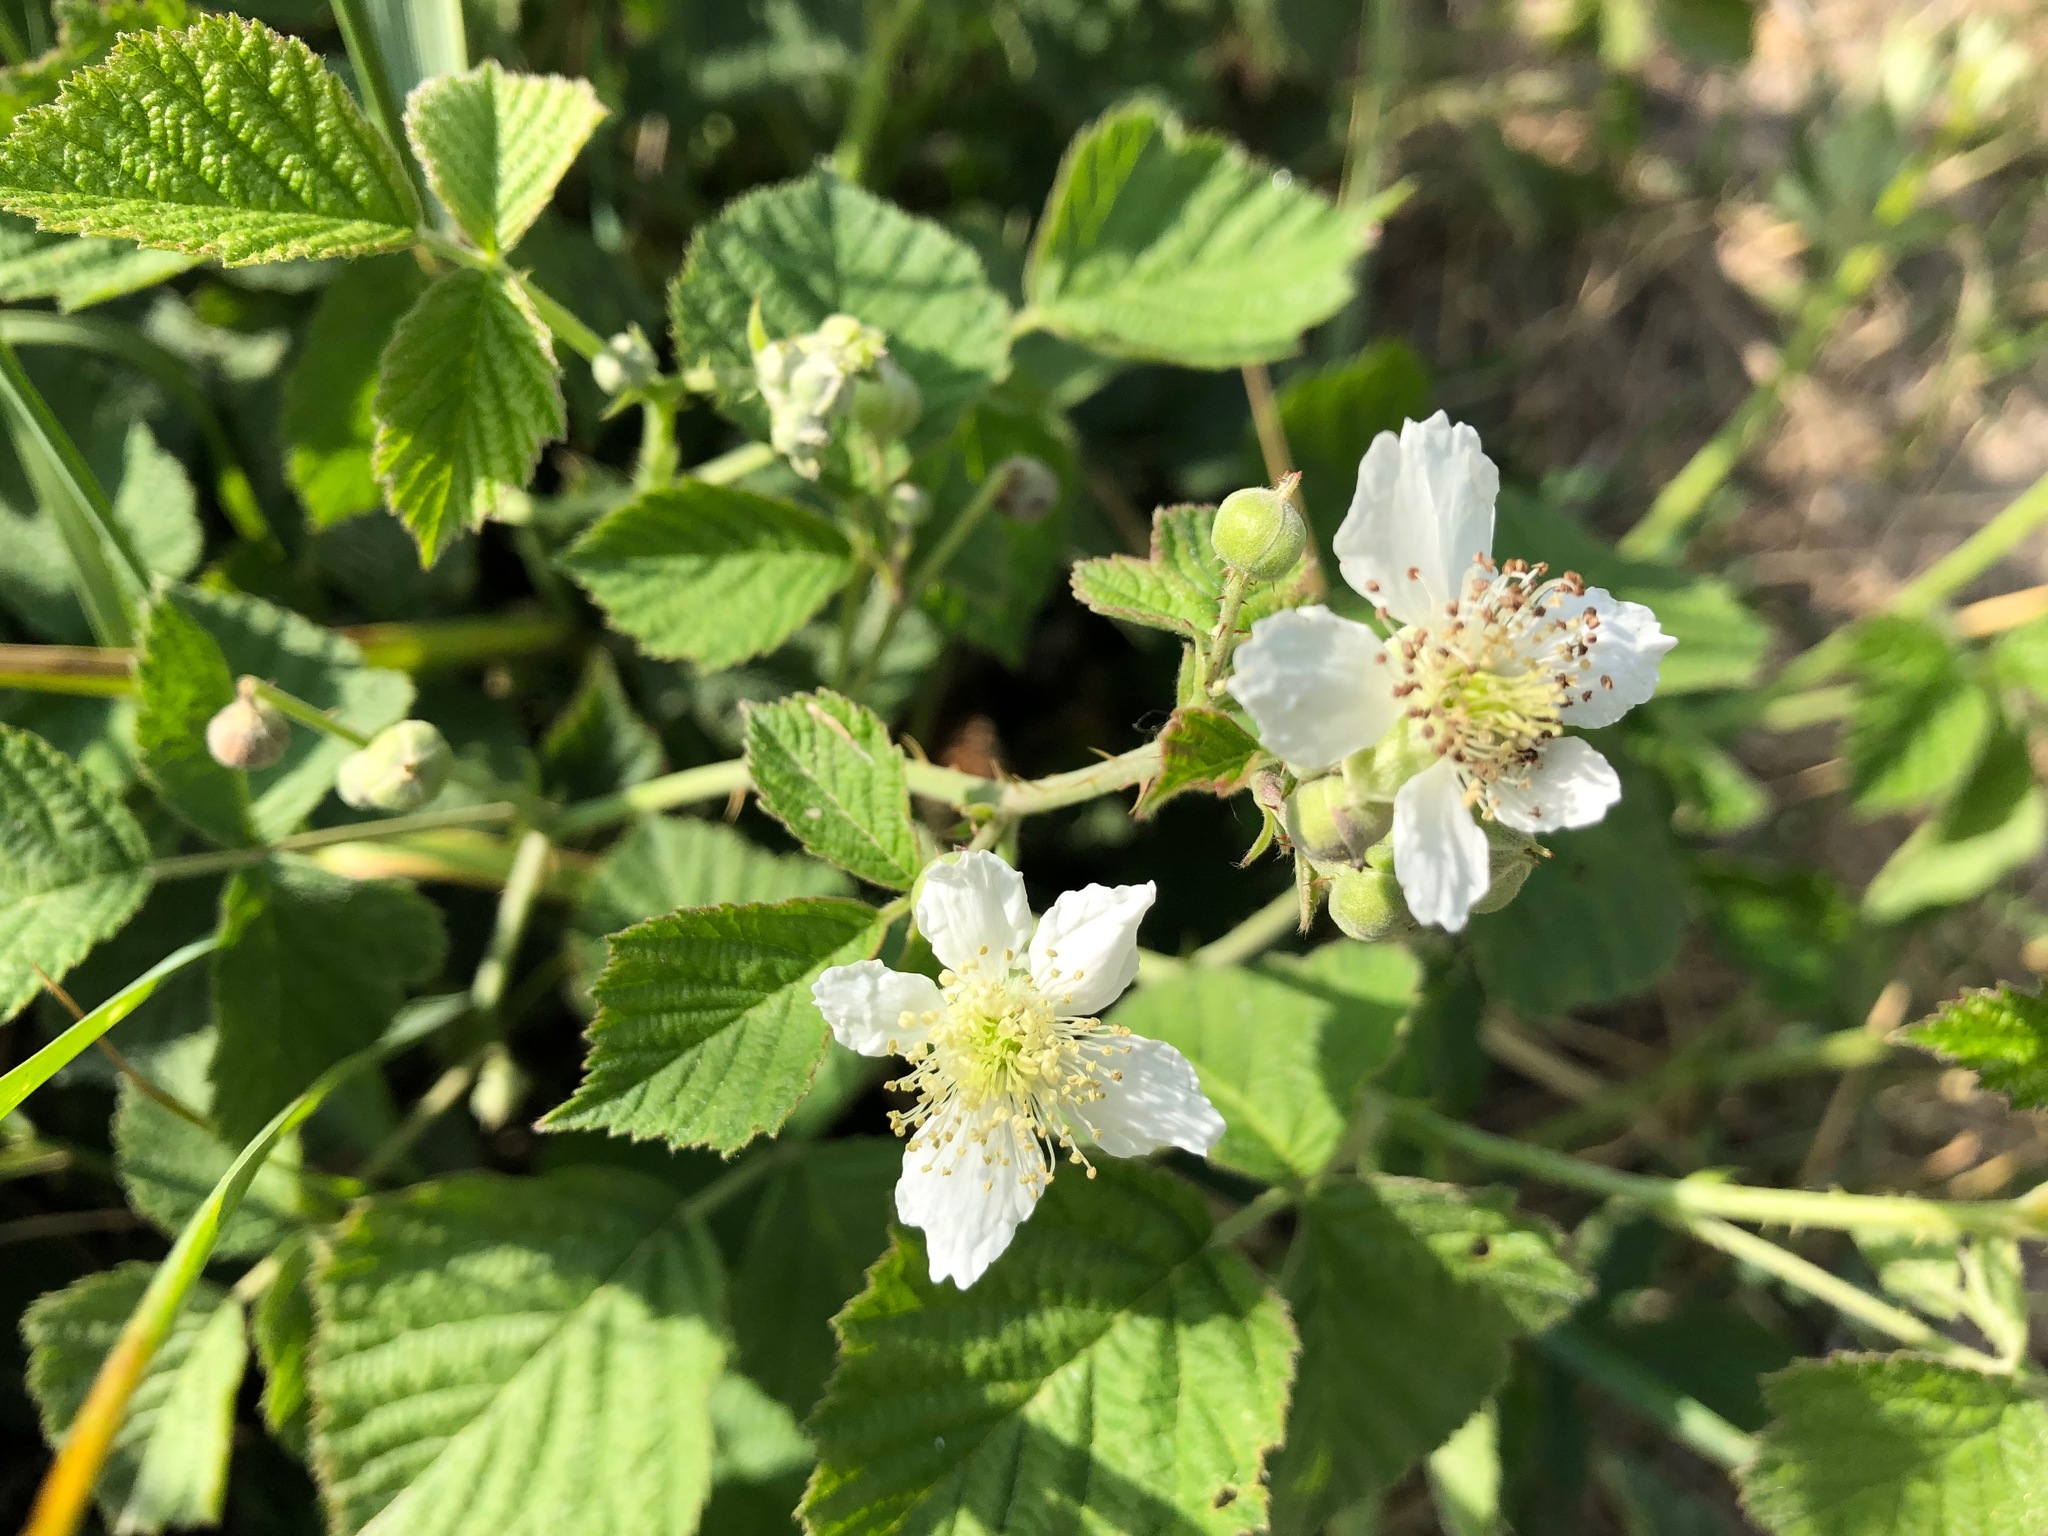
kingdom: Plantae
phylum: Tracheophyta
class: Magnoliopsida
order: Rosales
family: Rosaceae
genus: Rubus
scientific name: Rubus caesius
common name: Dewberry
